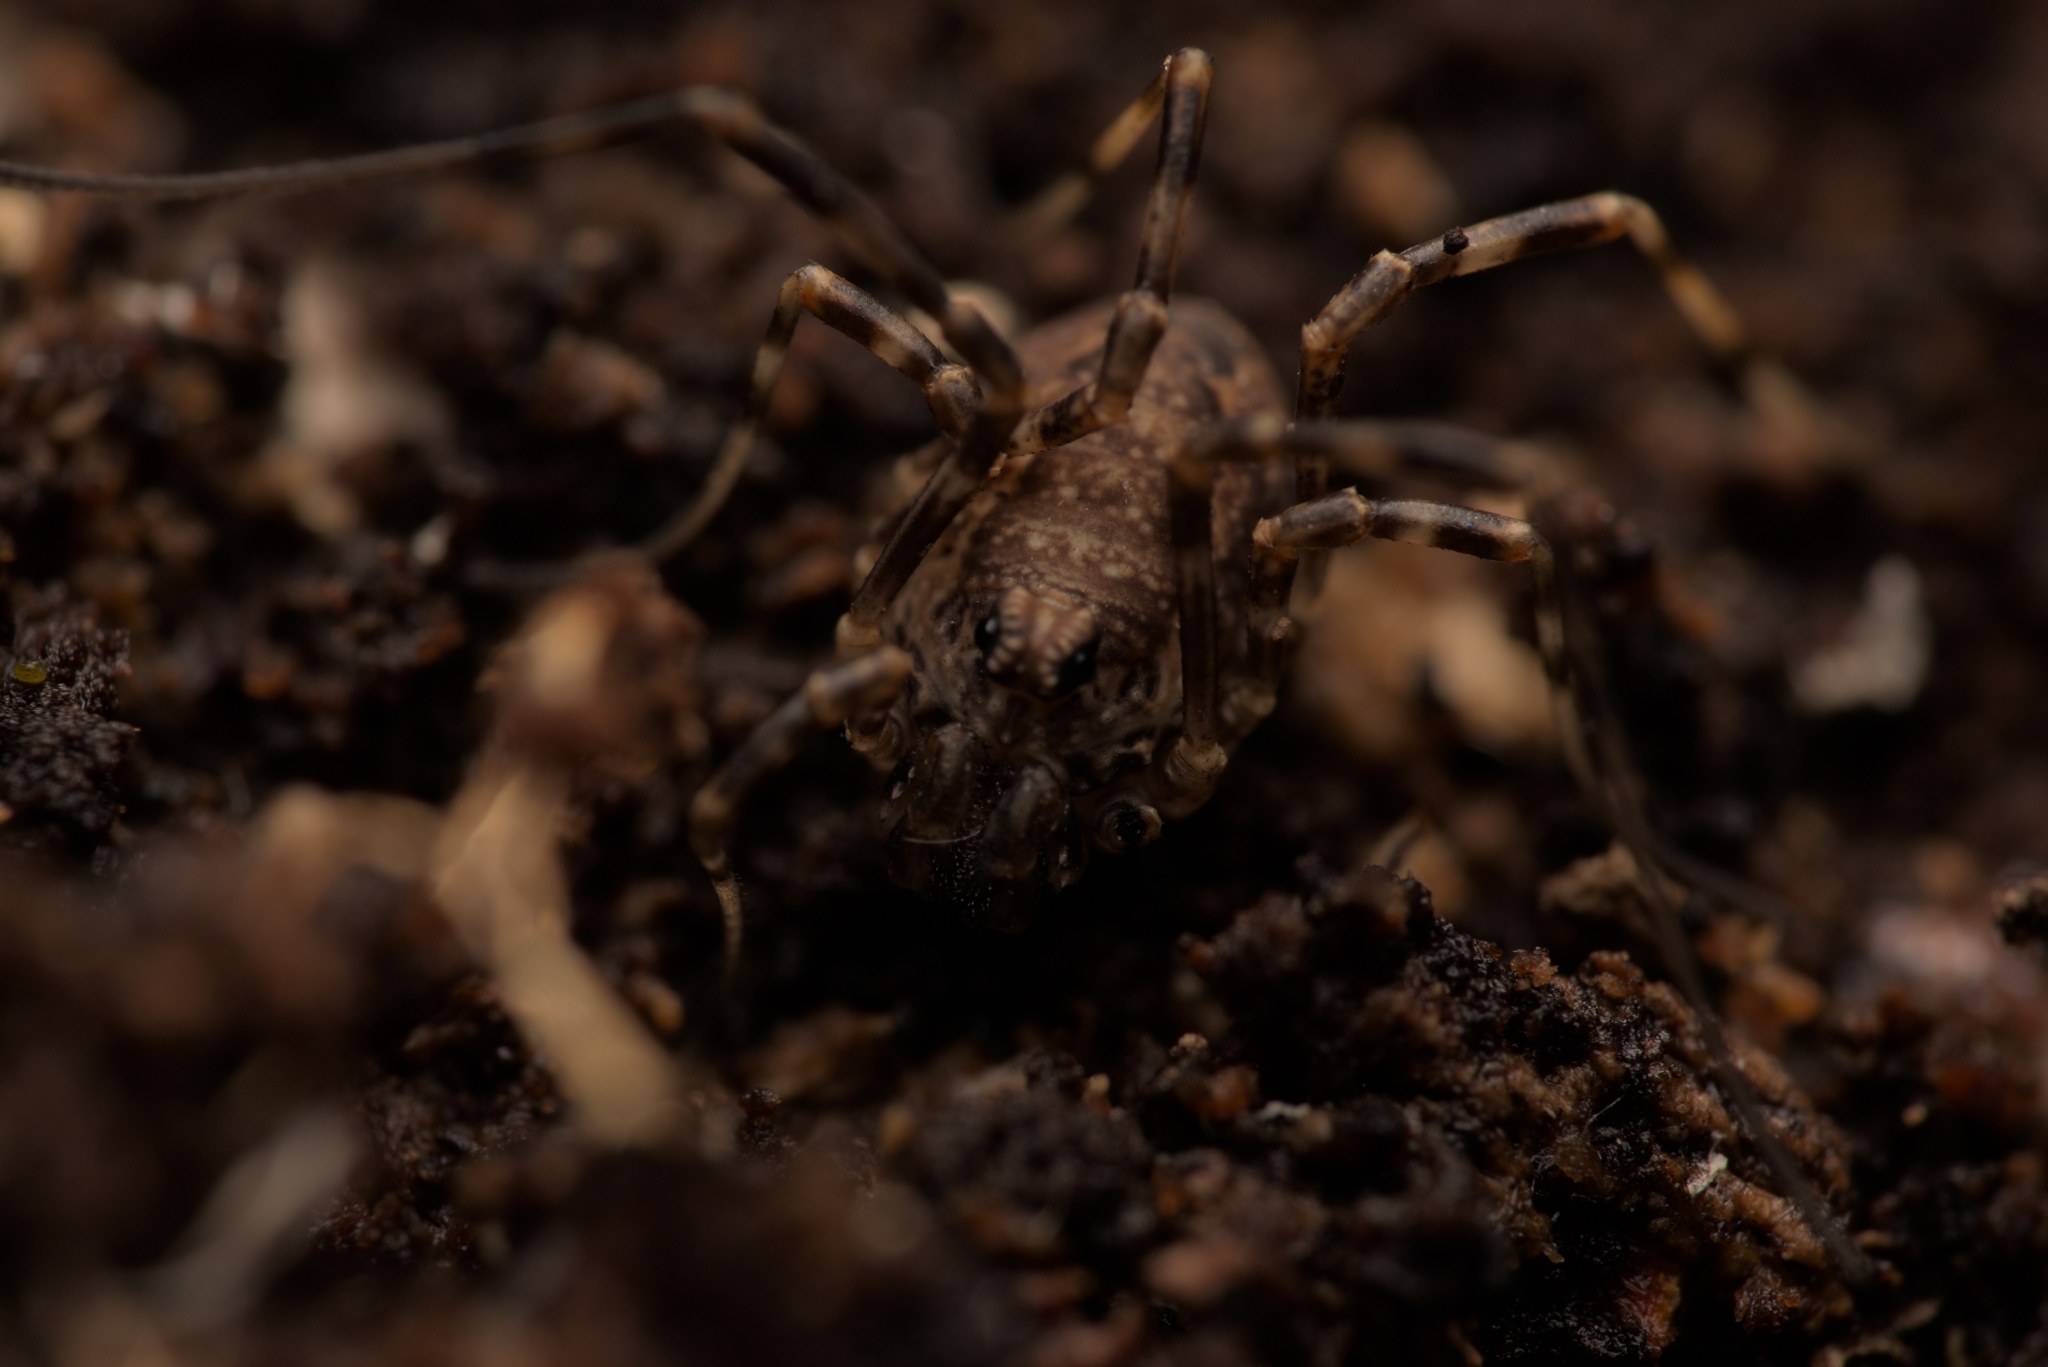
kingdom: Animalia
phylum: Arthropoda
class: Arachnida
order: Opiliones
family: Phalangiidae
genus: Rilaena
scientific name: Rilaena triangularis
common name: Spring harvestman
